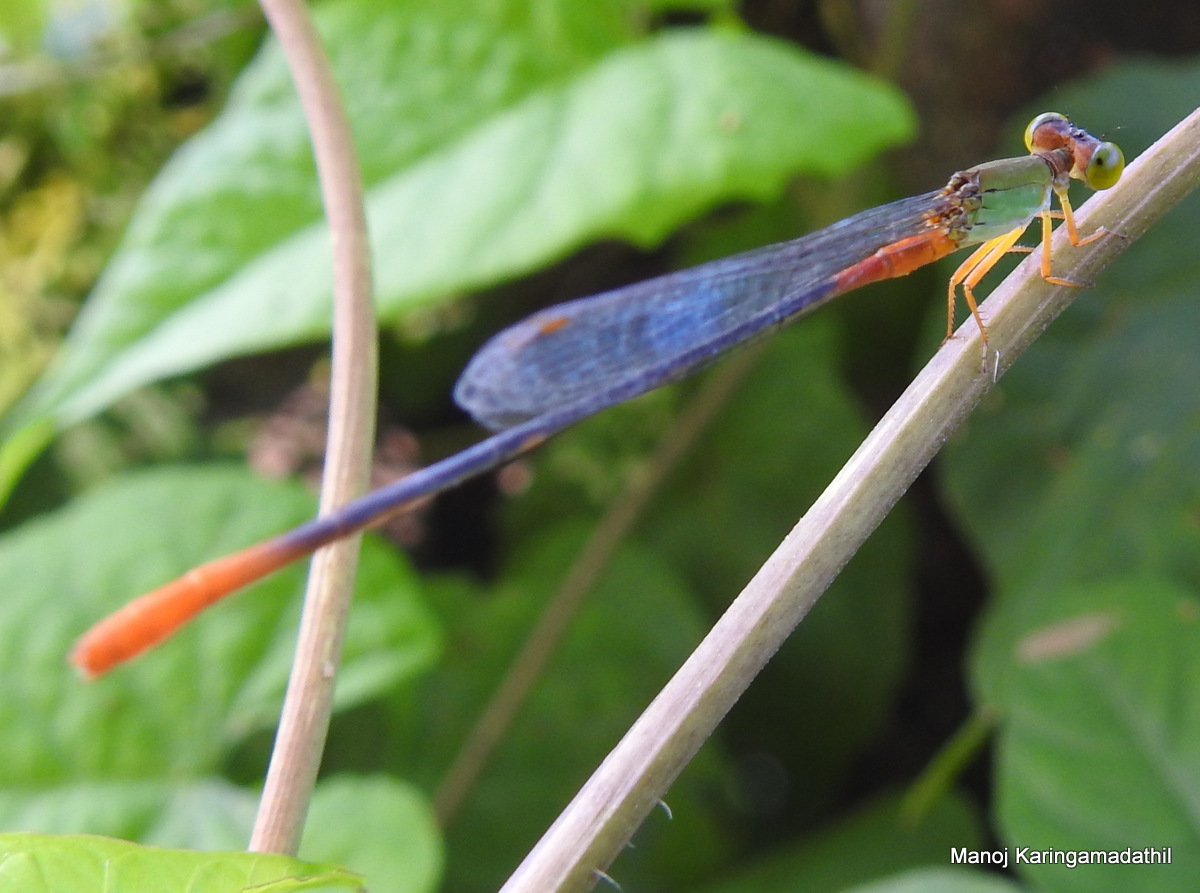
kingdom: Animalia
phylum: Arthropoda
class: Insecta
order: Odonata
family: Coenagrionidae
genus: Ceriagrion
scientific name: Ceriagrion cerinorubellum
